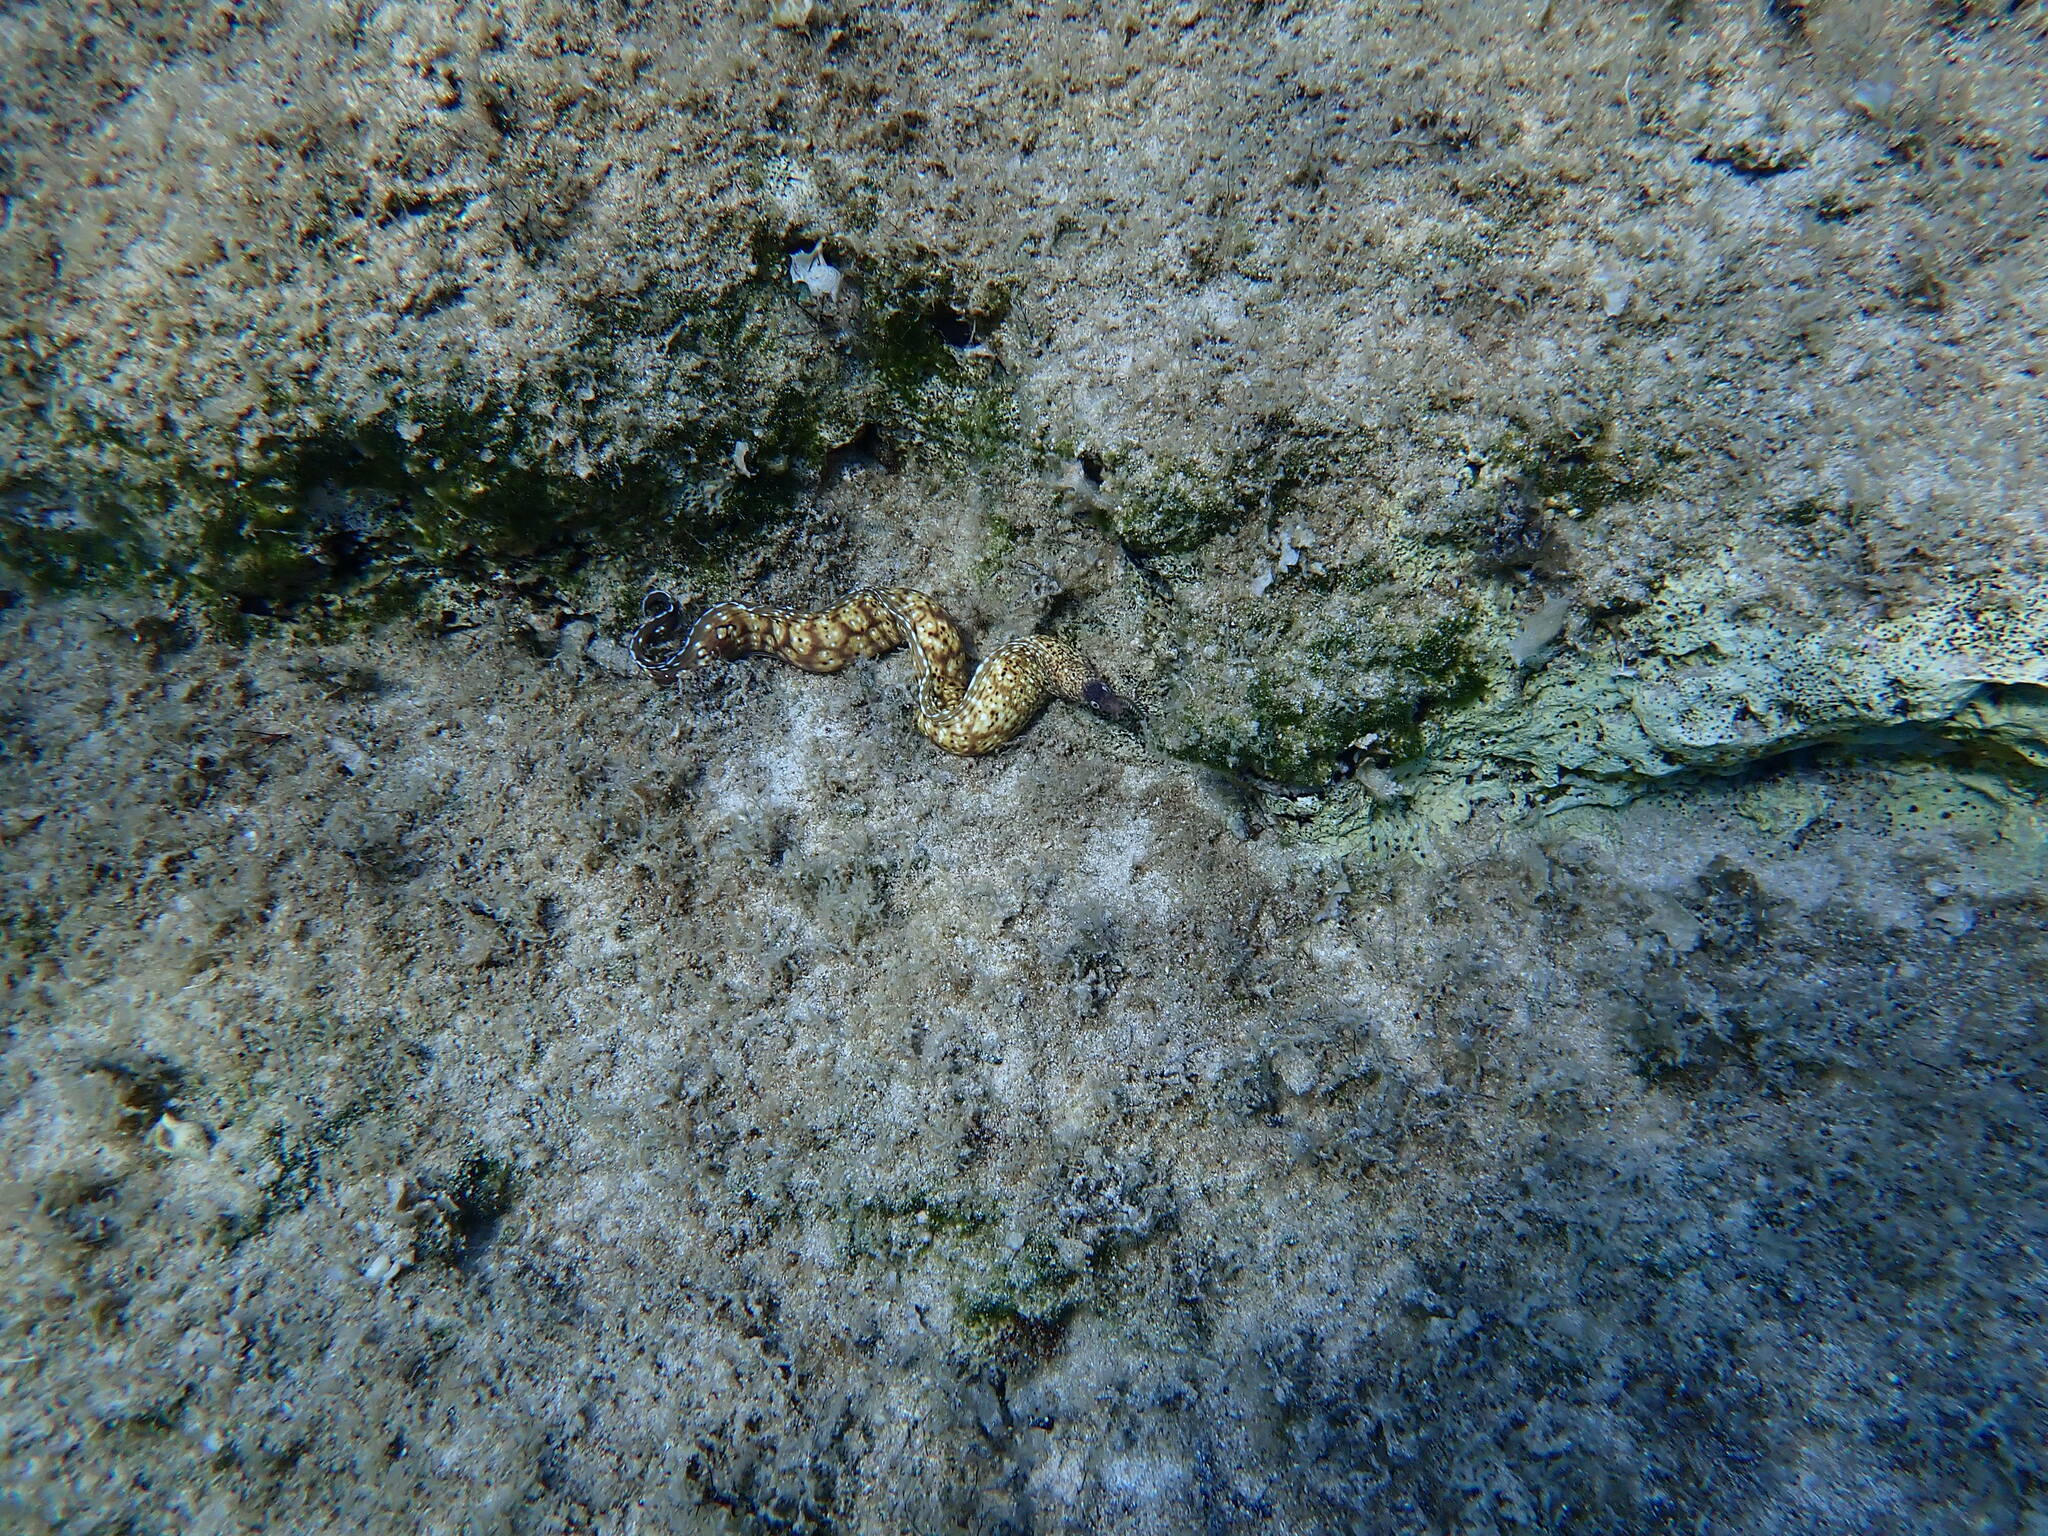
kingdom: Animalia
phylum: Chordata
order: Anguilliformes
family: Muraenidae
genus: Muraena
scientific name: Muraena helena
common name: Mediterranean moray
